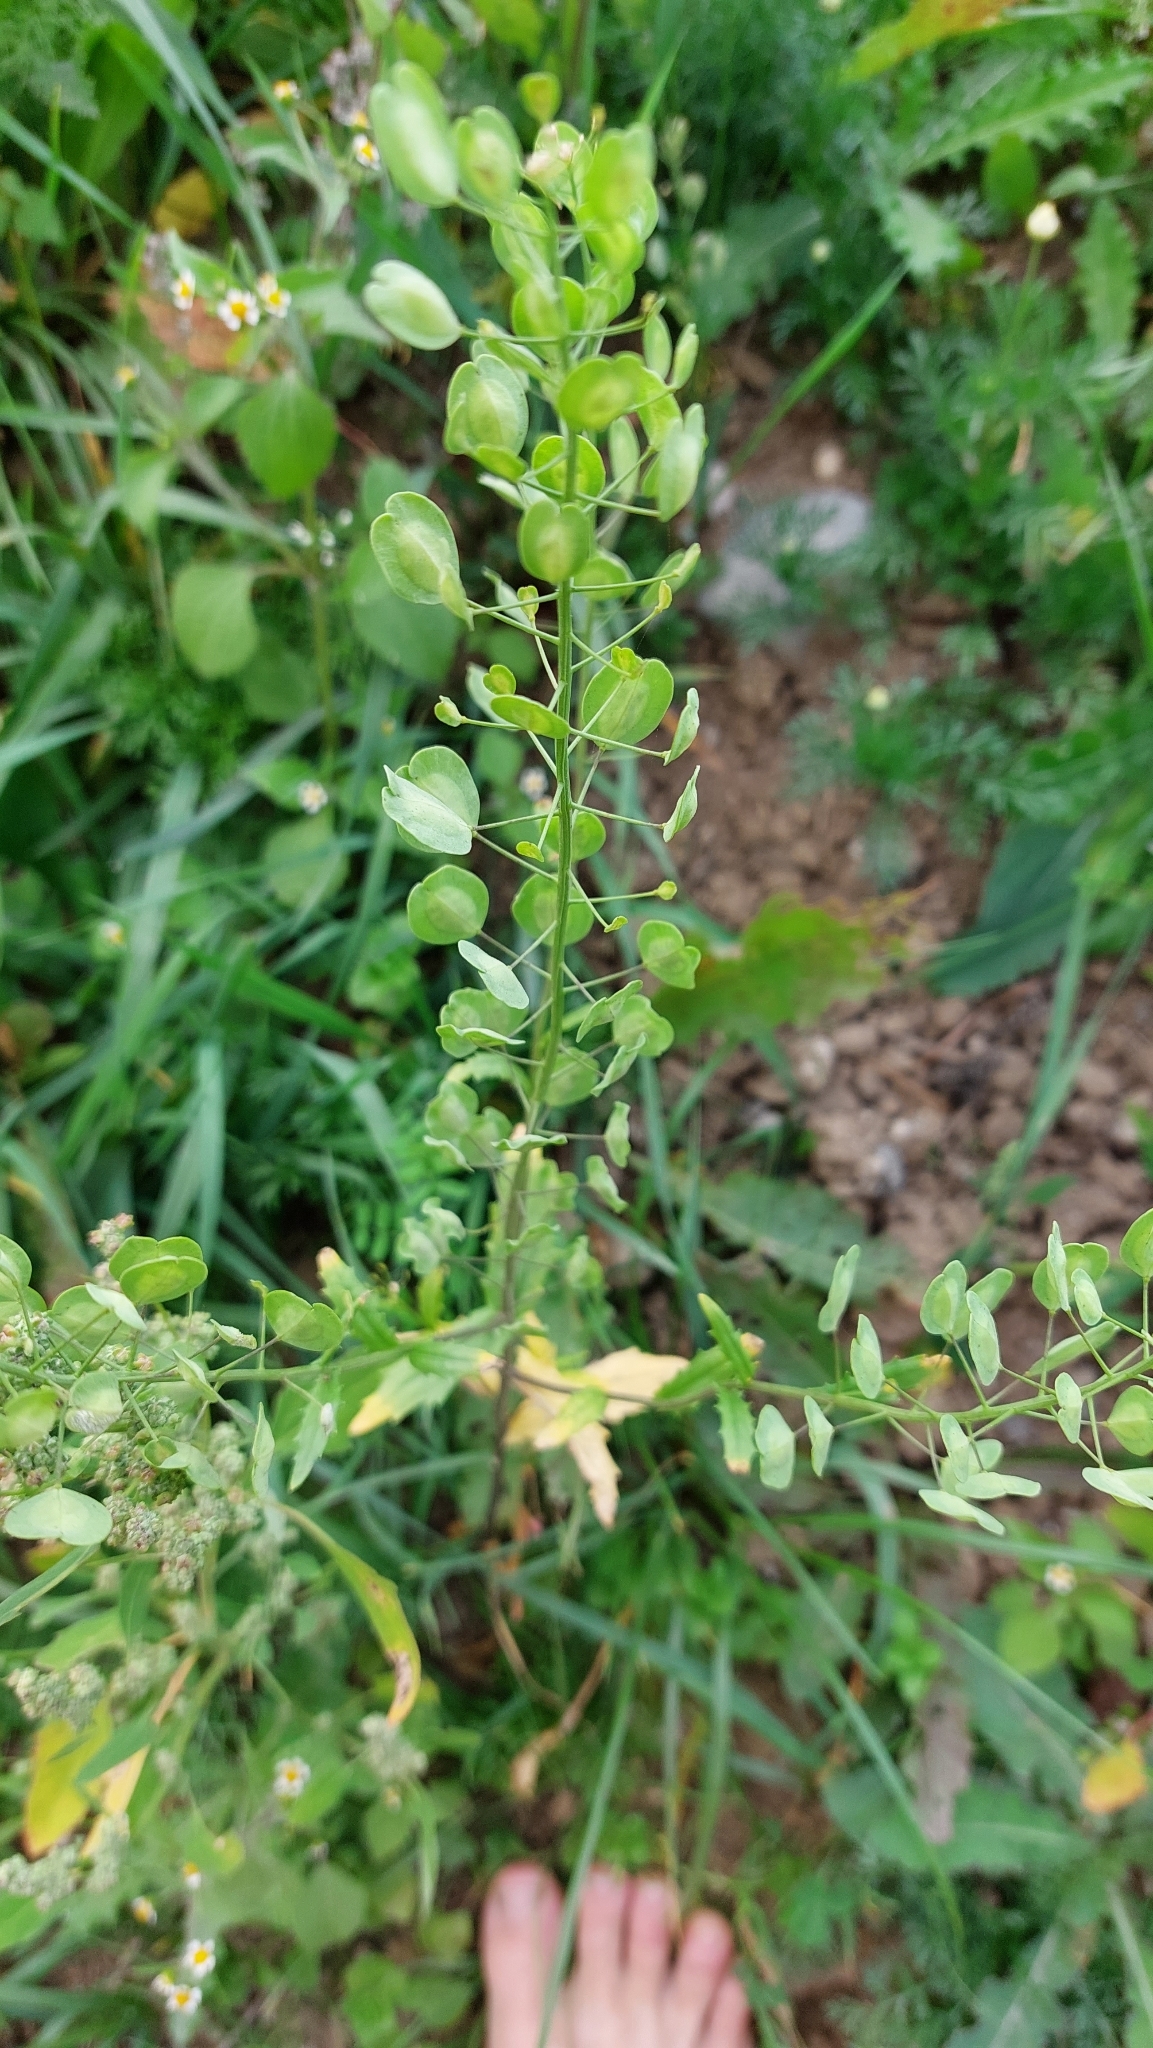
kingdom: Plantae
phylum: Tracheophyta
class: Magnoliopsida
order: Brassicales
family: Brassicaceae
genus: Thlaspi
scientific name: Thlaspi arvense
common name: Field pennycress
